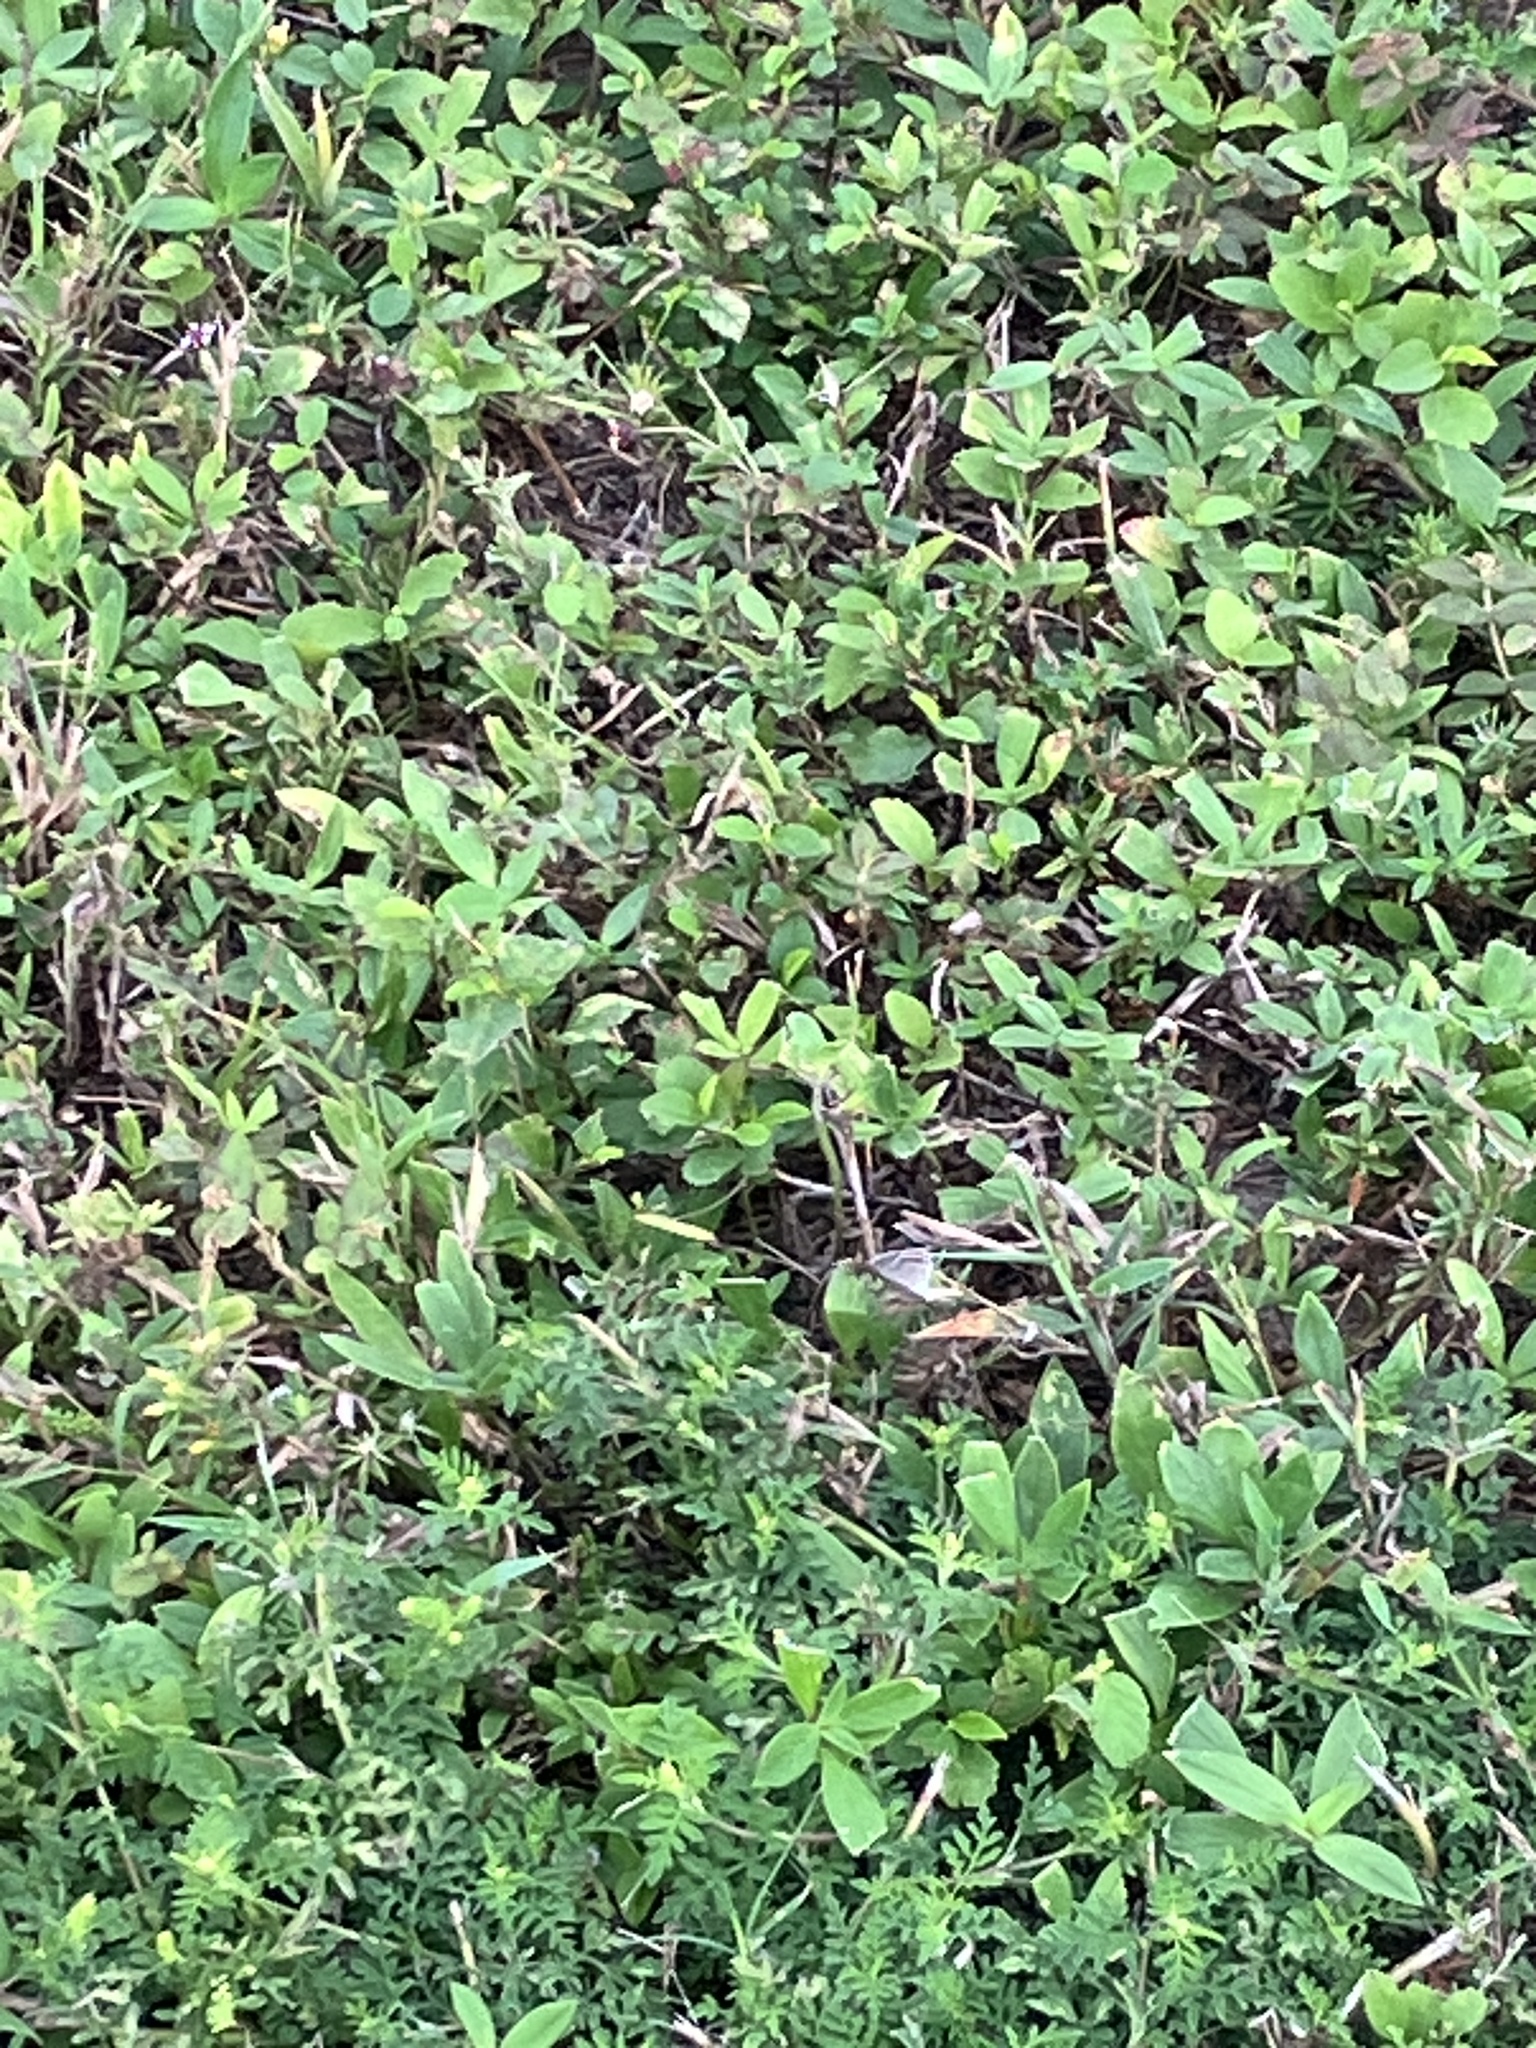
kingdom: Animalia
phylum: Arthropoda
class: Insecta
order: Lepidoptera
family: Lycaenidae
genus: Hemiargus
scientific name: Hemiargus ceraunus
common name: Ceraunus blue
